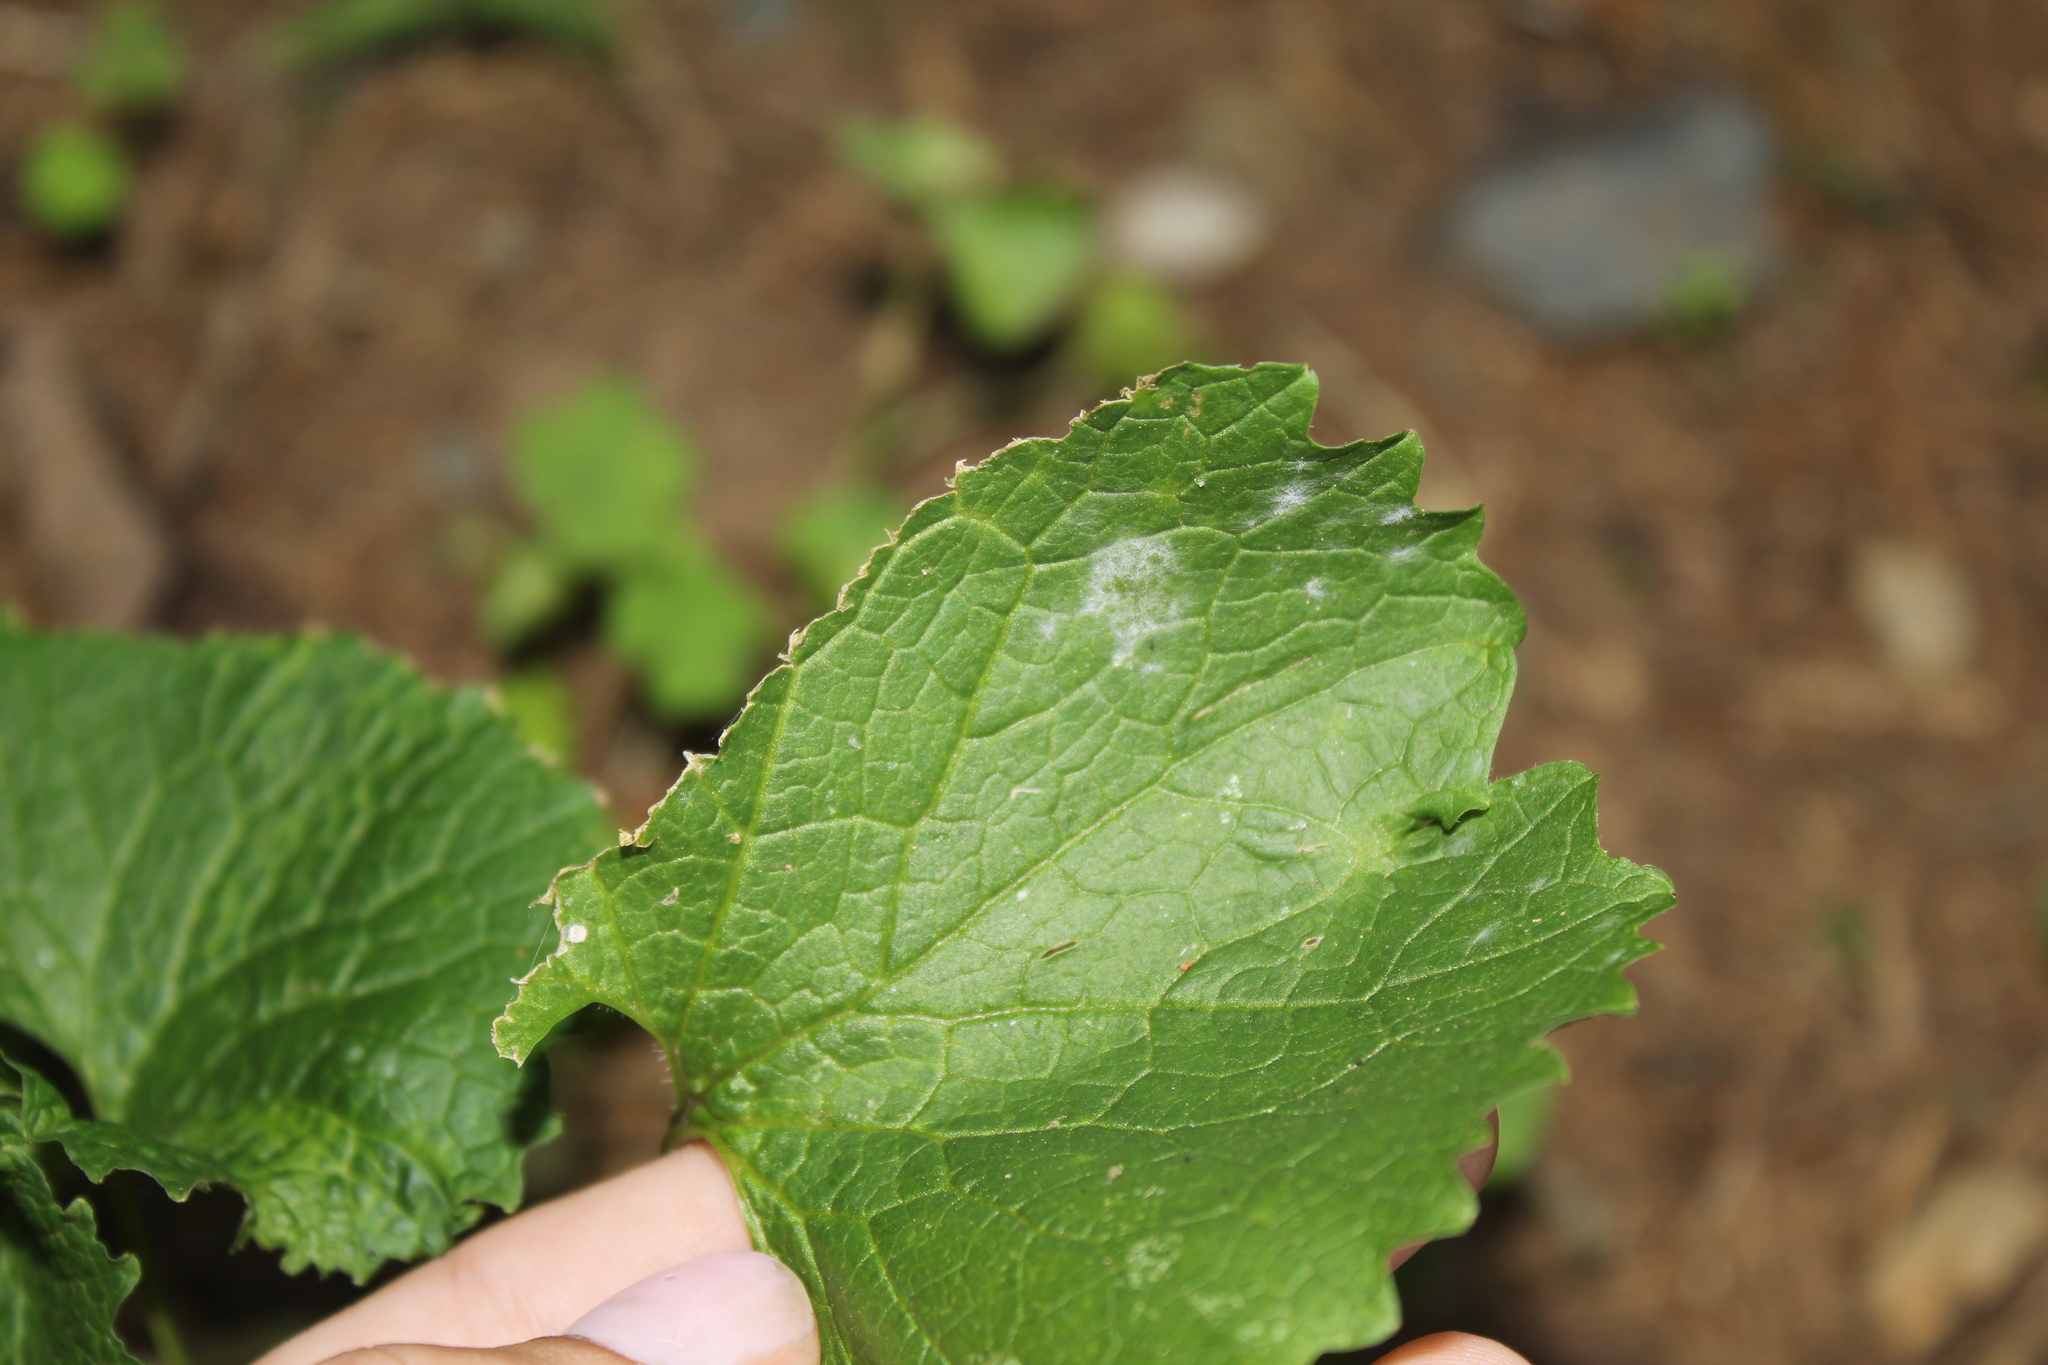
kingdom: Plantae
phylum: Tracheophyta
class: Magnoliopsida
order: Brassicales
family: Brassicaceae
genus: Alliaria
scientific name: Alliaria petiolata
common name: Garlic mustard
